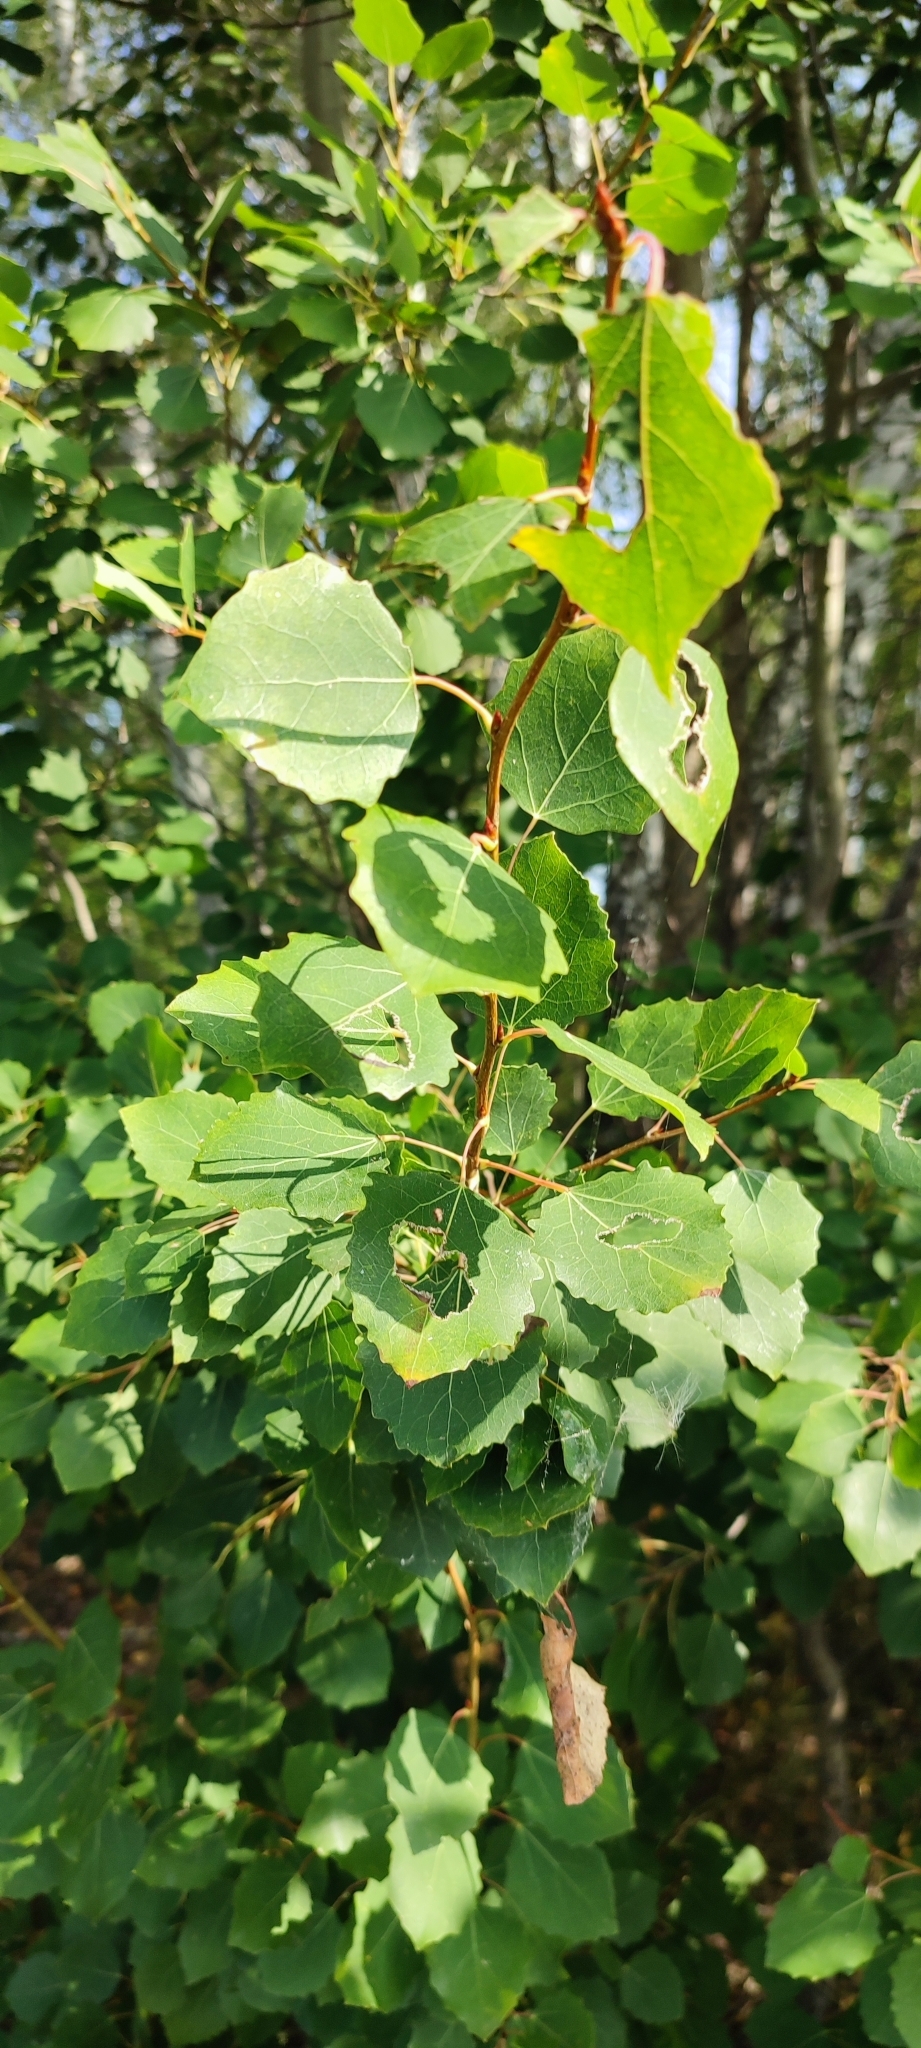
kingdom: Plantae
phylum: Tracheophyta
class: Magnoliopsida
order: Malpighiales
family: Salicaceae
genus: Populus
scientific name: Populus tremula
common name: European aspen
